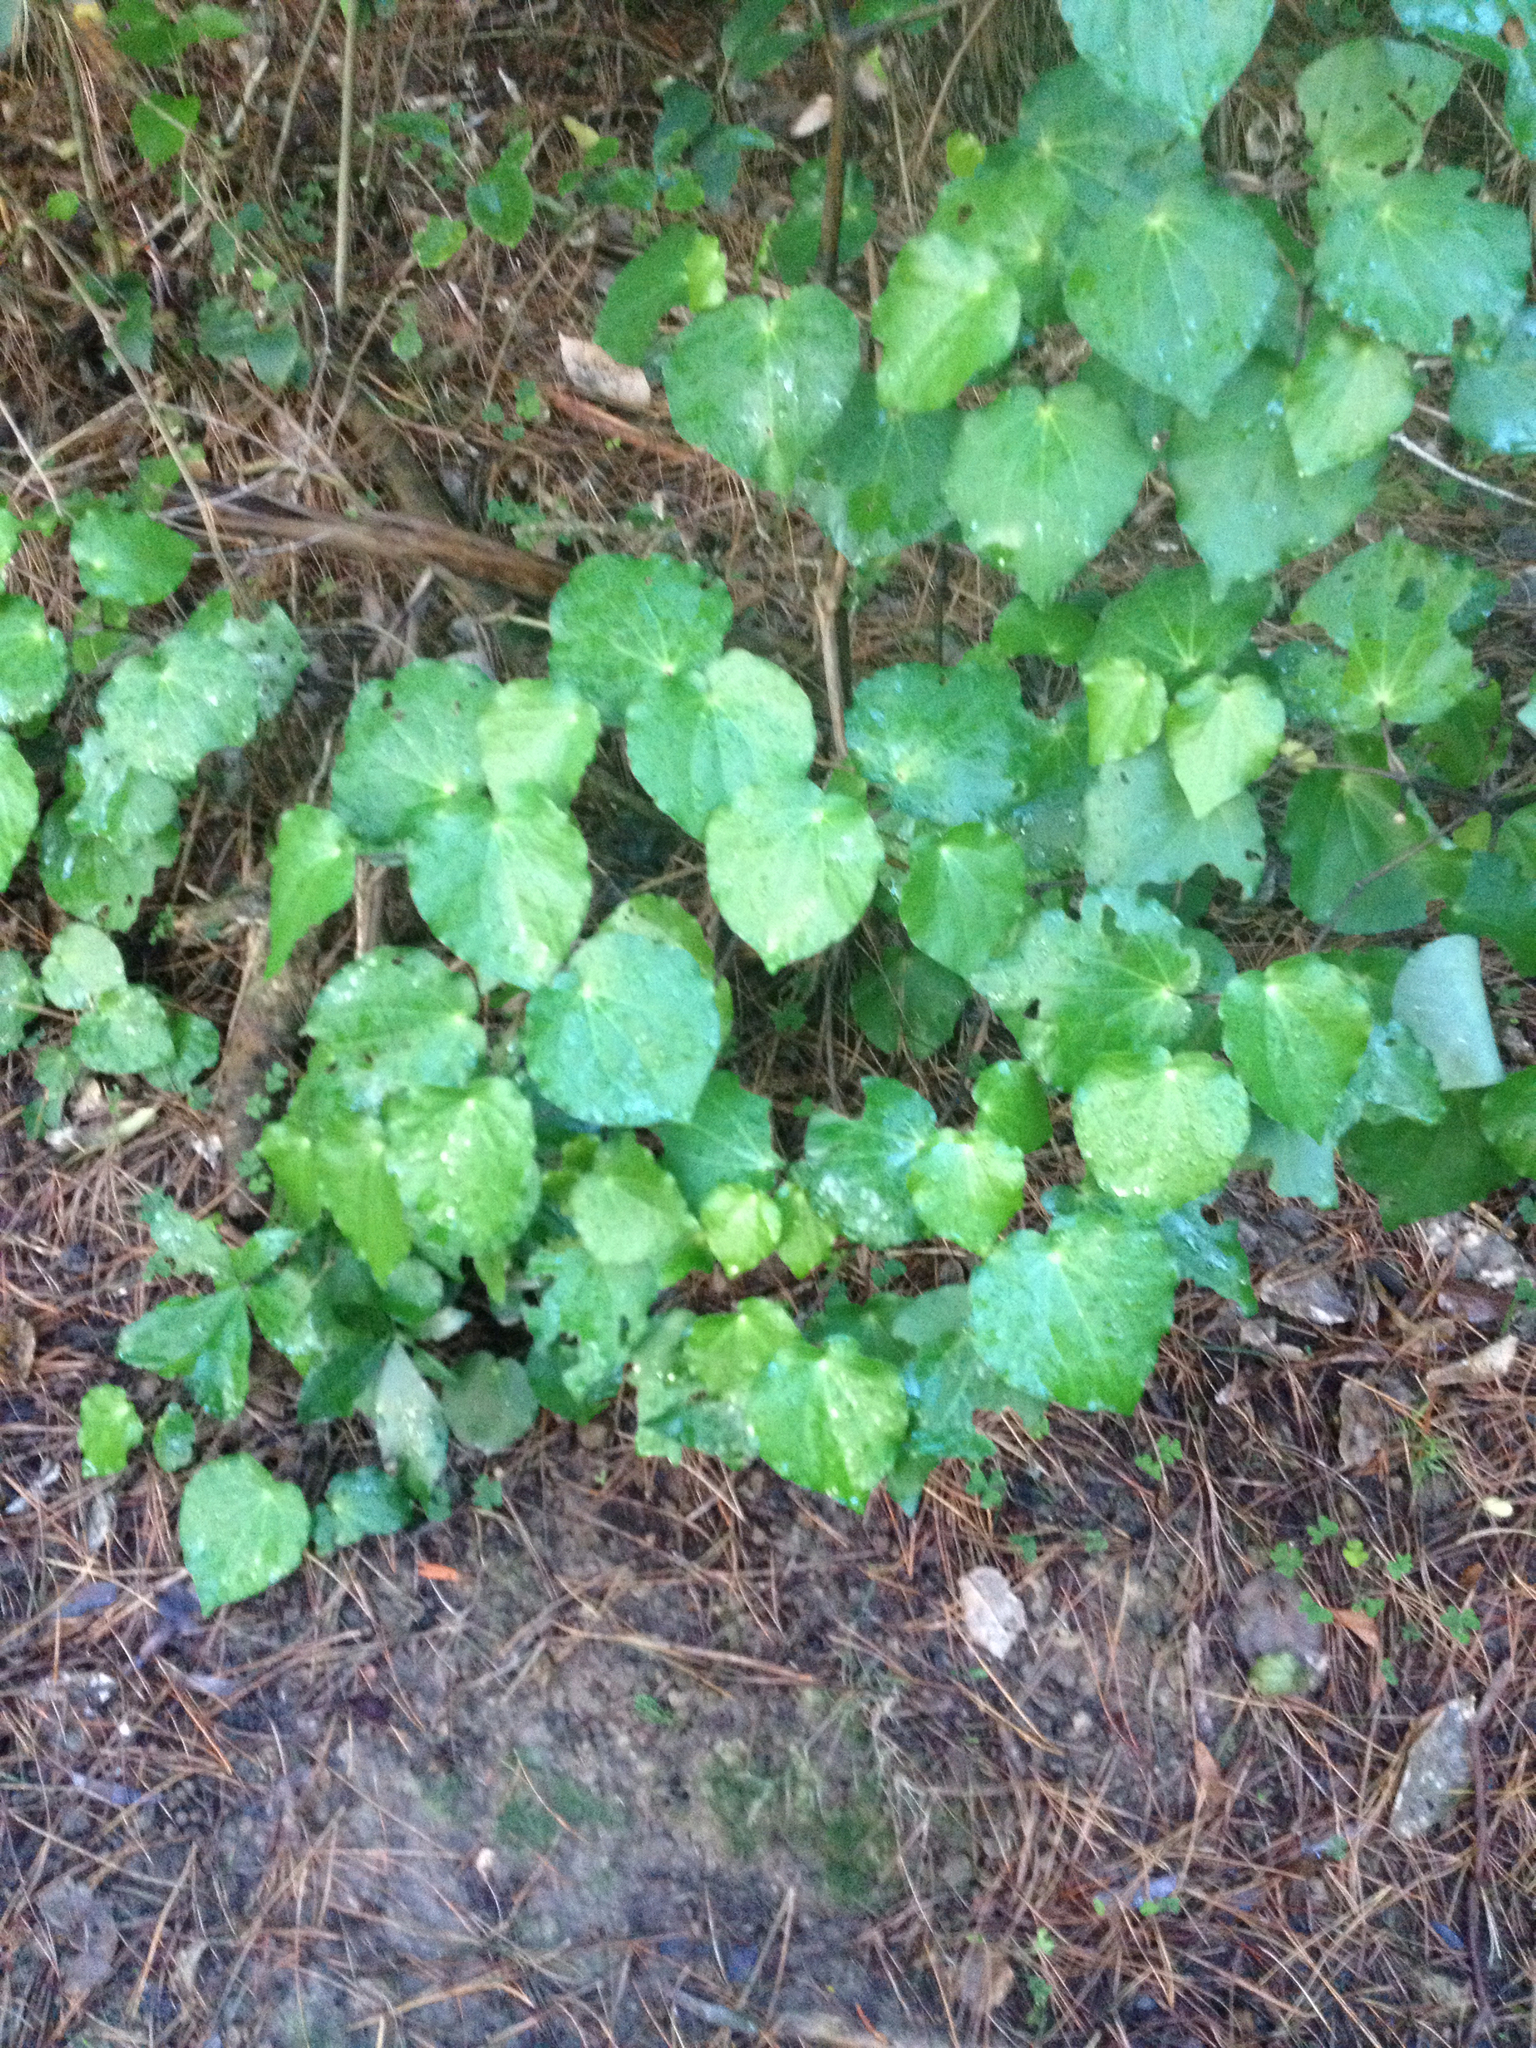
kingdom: Plantae
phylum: Tracheophyta
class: Magnoliopsida
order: Piperales
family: Piperaceae
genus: Macropiper
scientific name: Macropiper excelsum
